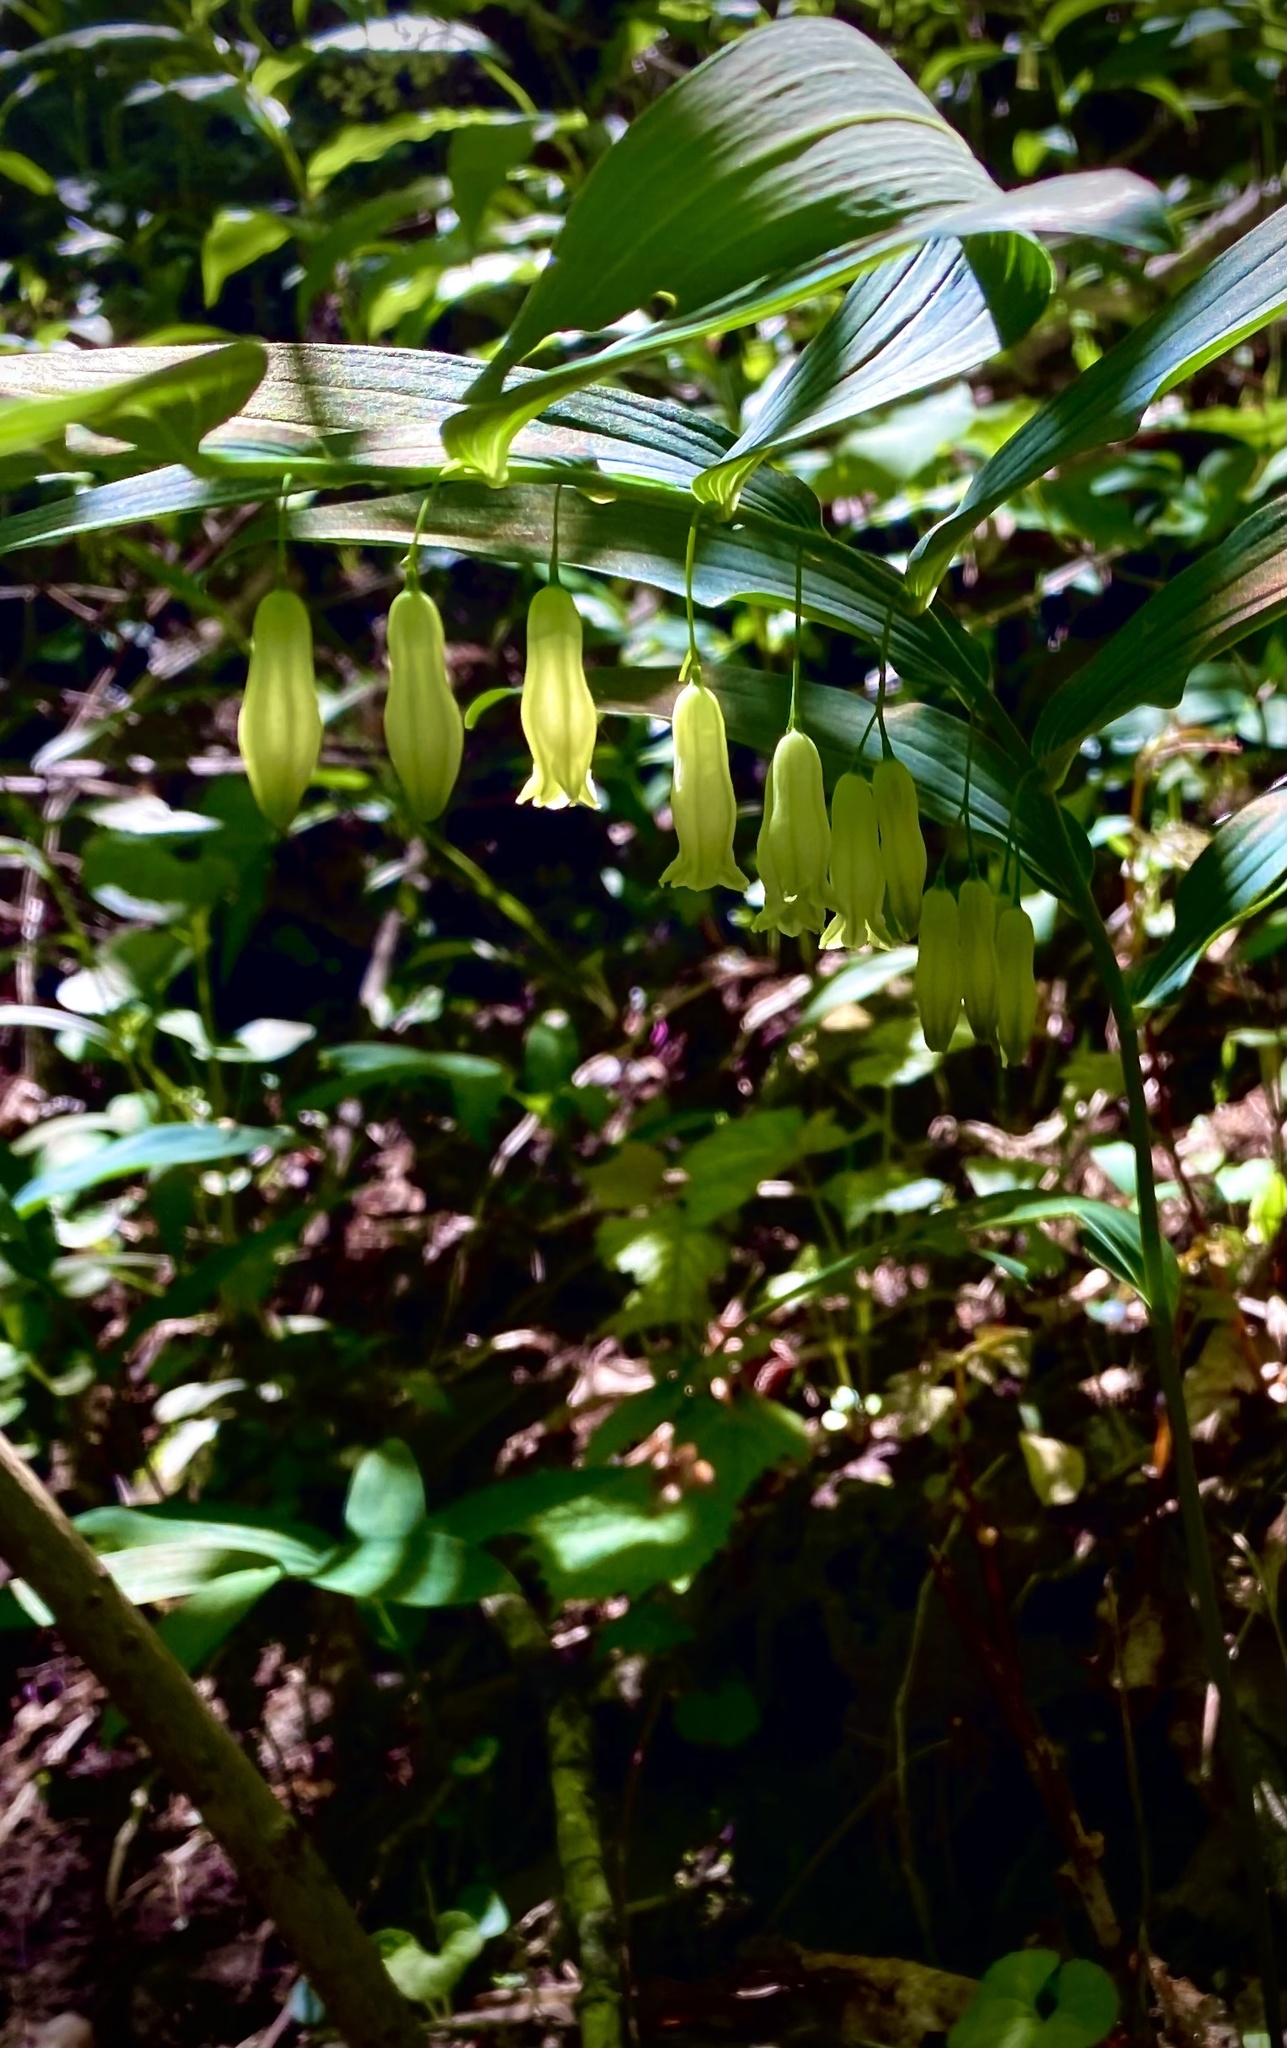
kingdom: Plantae
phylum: Tracheophyta
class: Liliopsida
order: Asparagales
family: Asparagaceae
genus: Polygonatum
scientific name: Polygonatum biflorum
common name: American solomon's-seal
